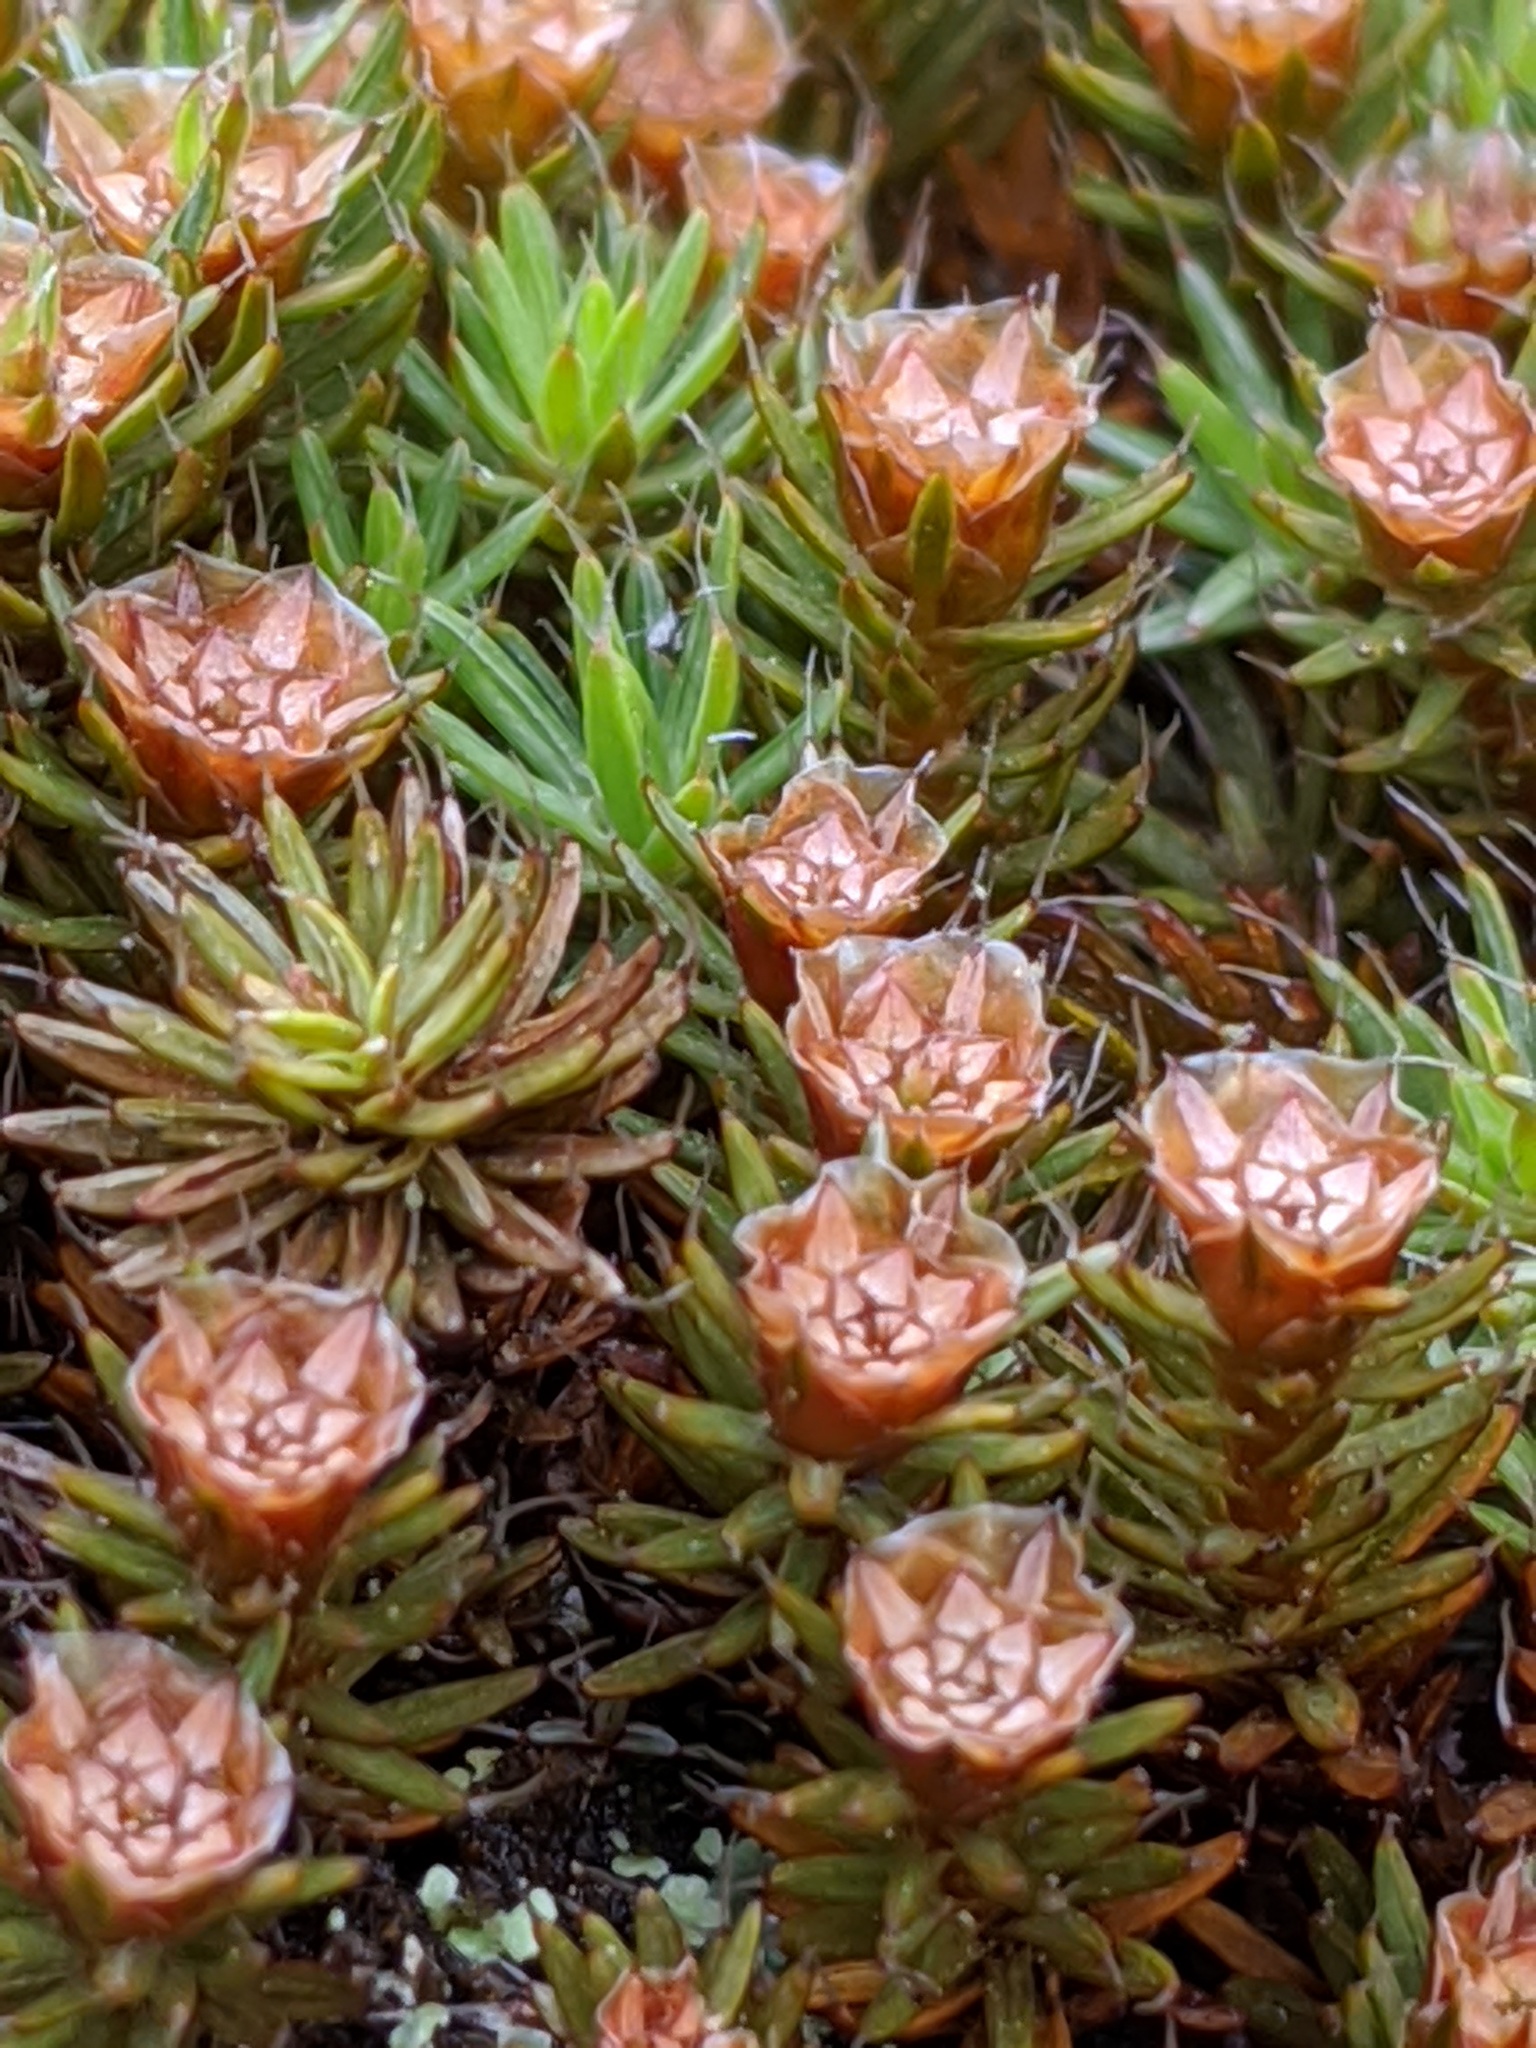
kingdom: Plantae
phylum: Bryophyta
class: Polytrichopsida
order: Polytrichales
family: Polytrichaceae
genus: Polytrichum
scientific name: Polytrichum piliferum
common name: Bristly haircap
